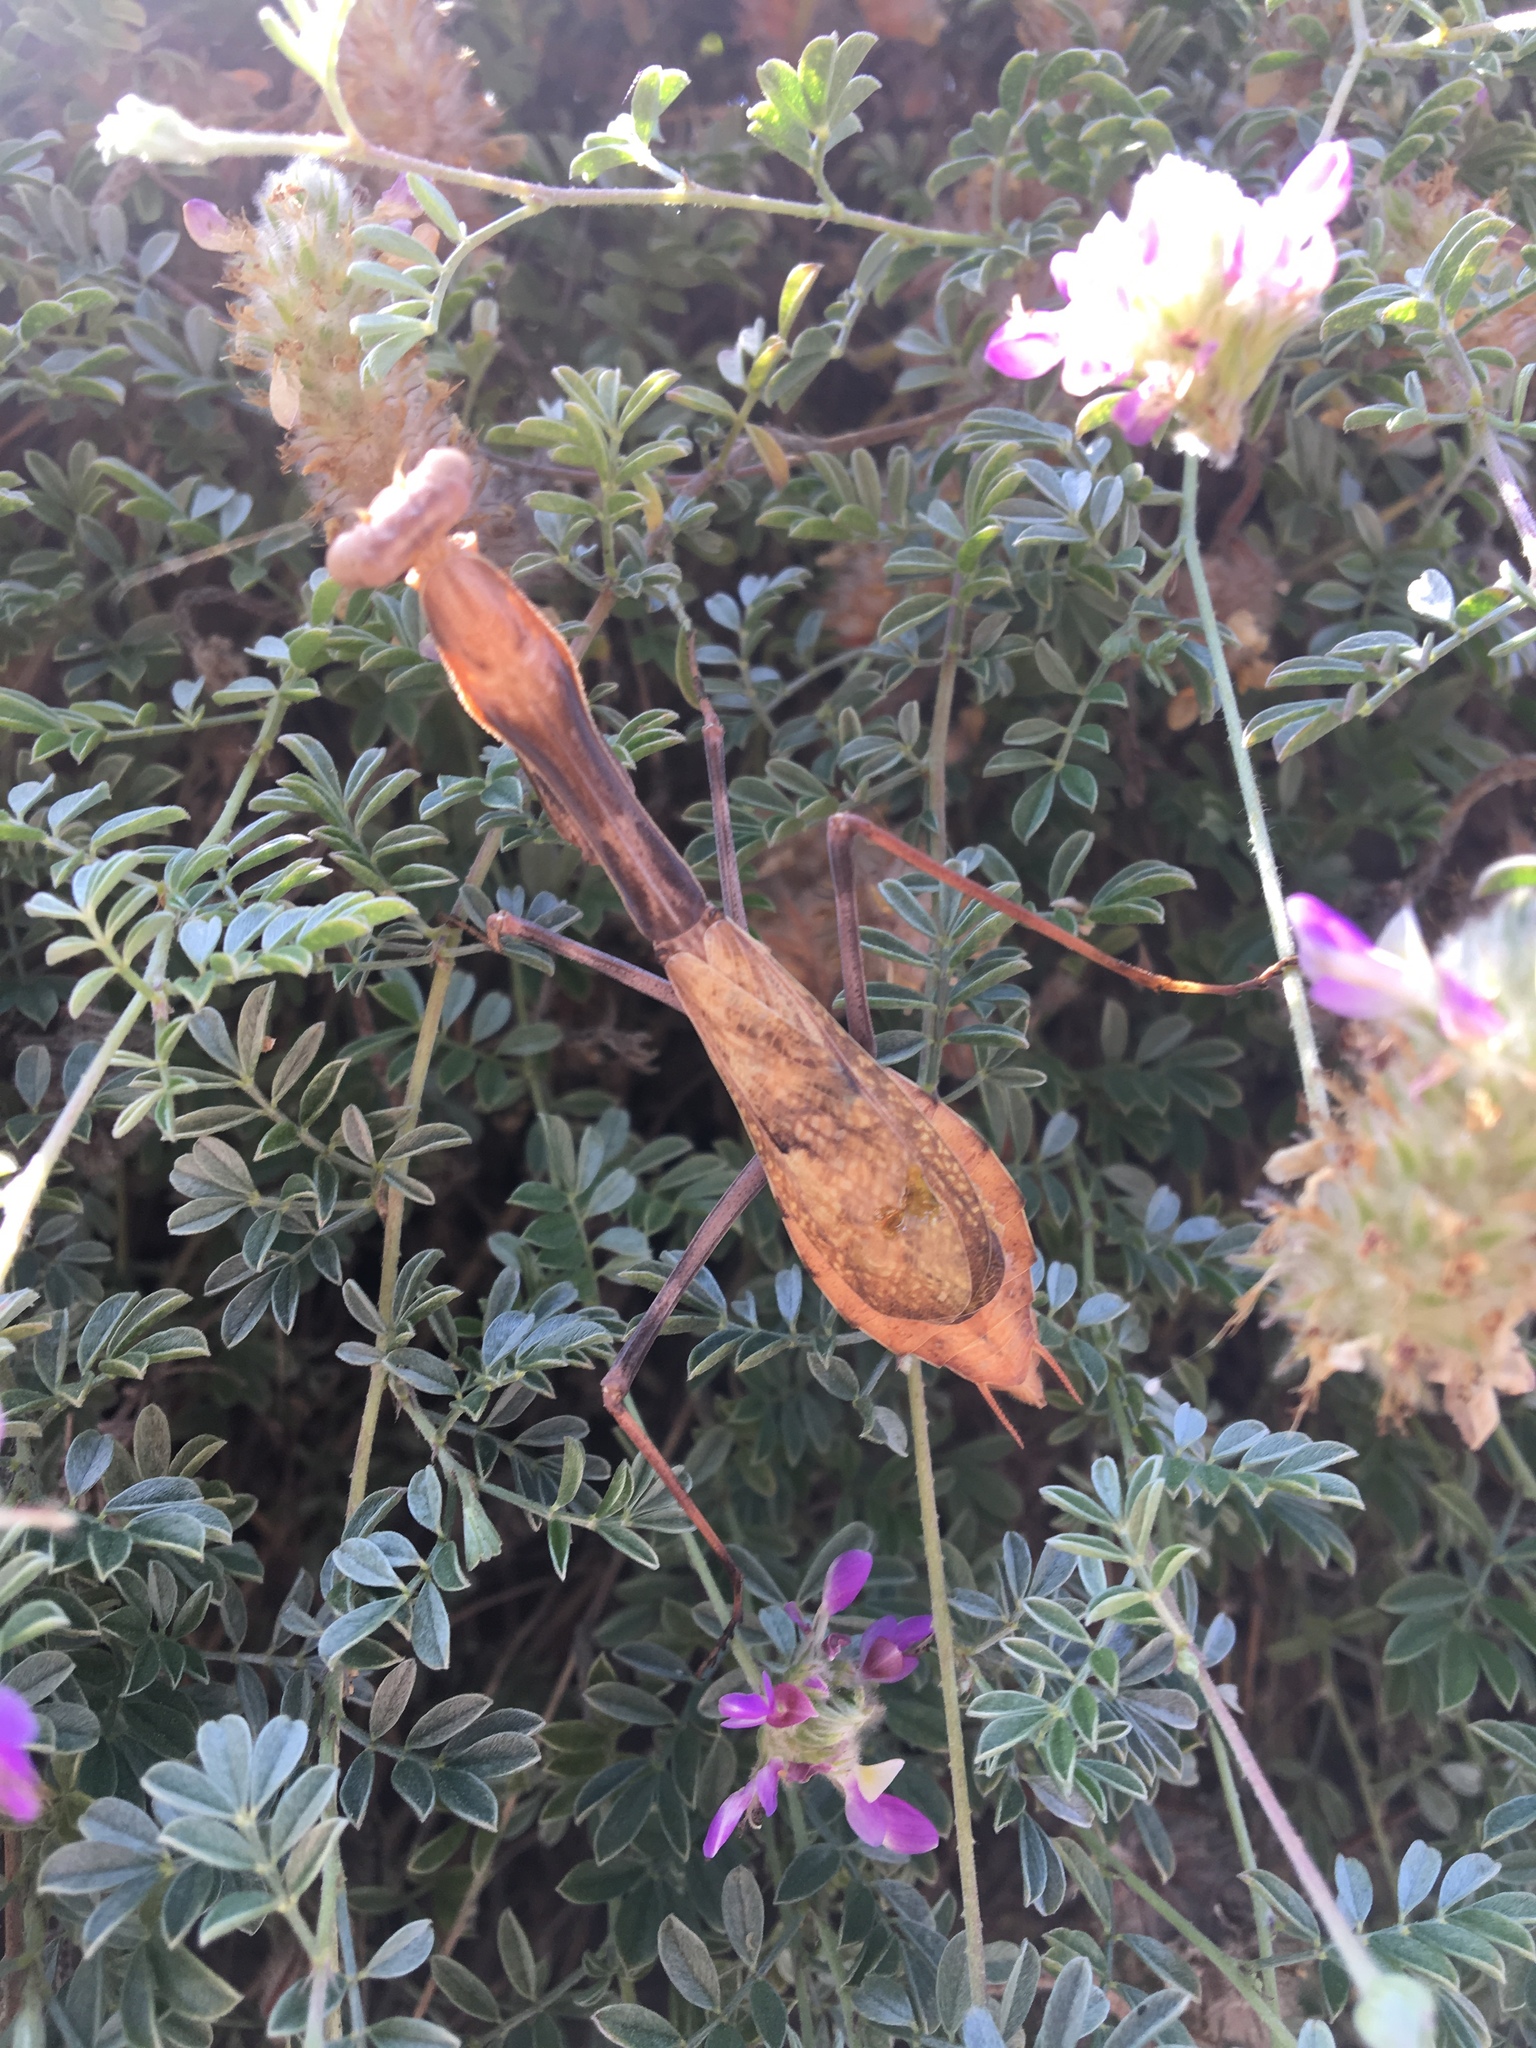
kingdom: Animalia
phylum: Arthropoda
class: Insecta
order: Mantodea
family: Mantidae
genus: Stagmomantis
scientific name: Stagmomantis limbata
